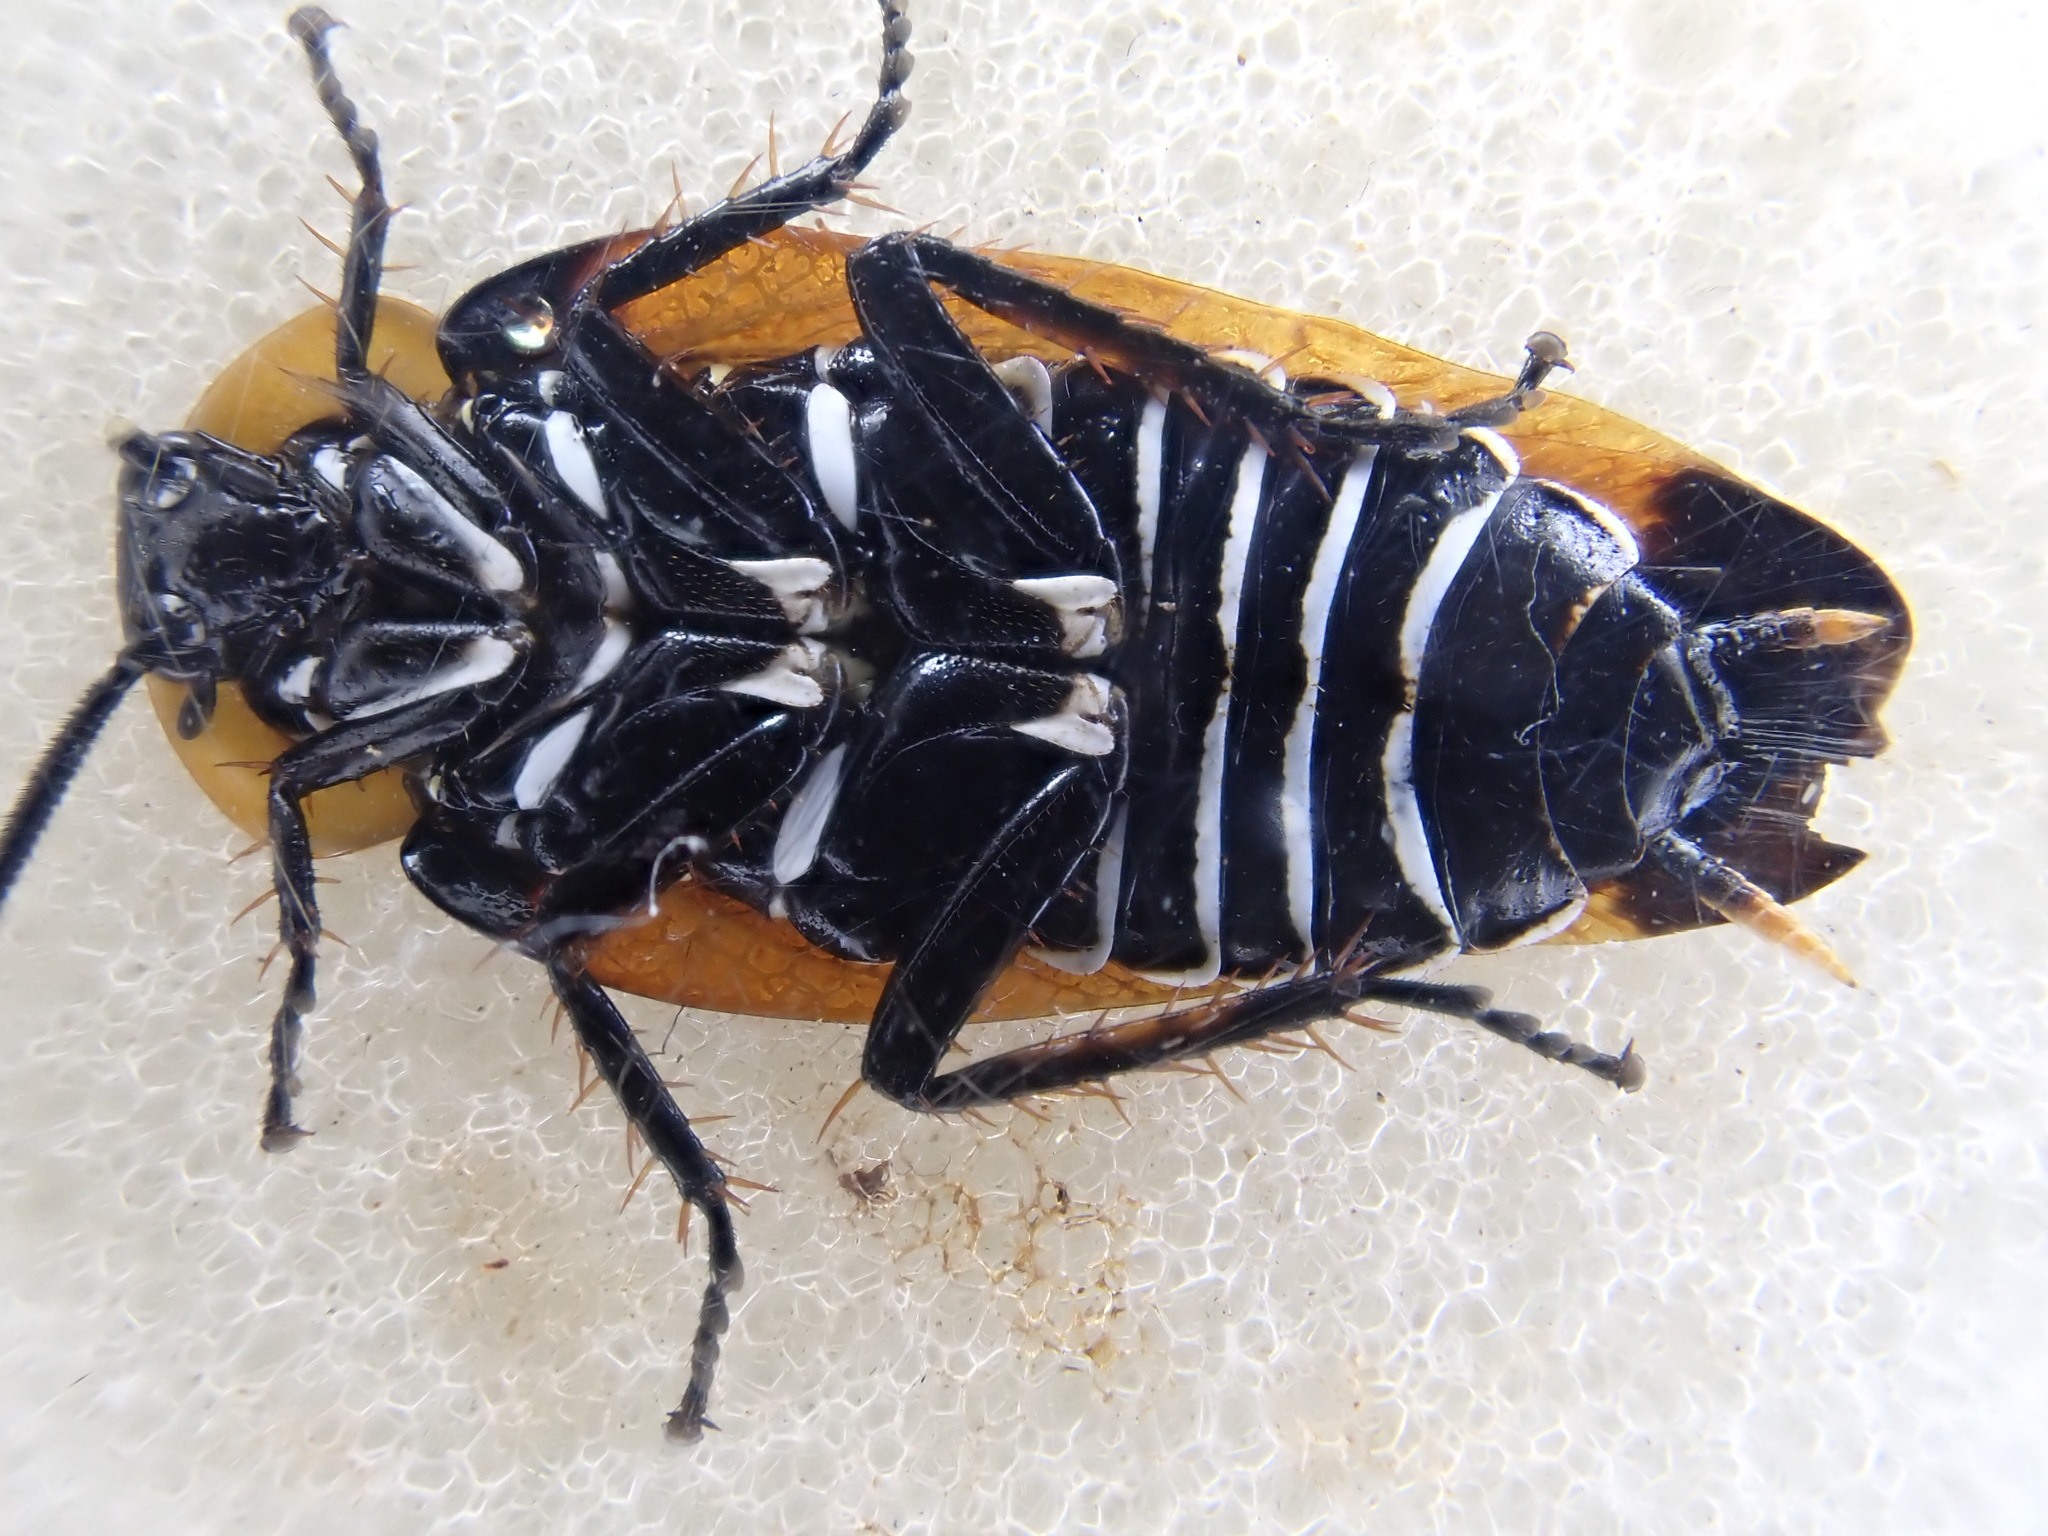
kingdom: Animalia
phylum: Arthropoda
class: Insecta
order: Blattodea
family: Ectobiidae
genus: Ellipsidion
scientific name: Ellipsidion australe
